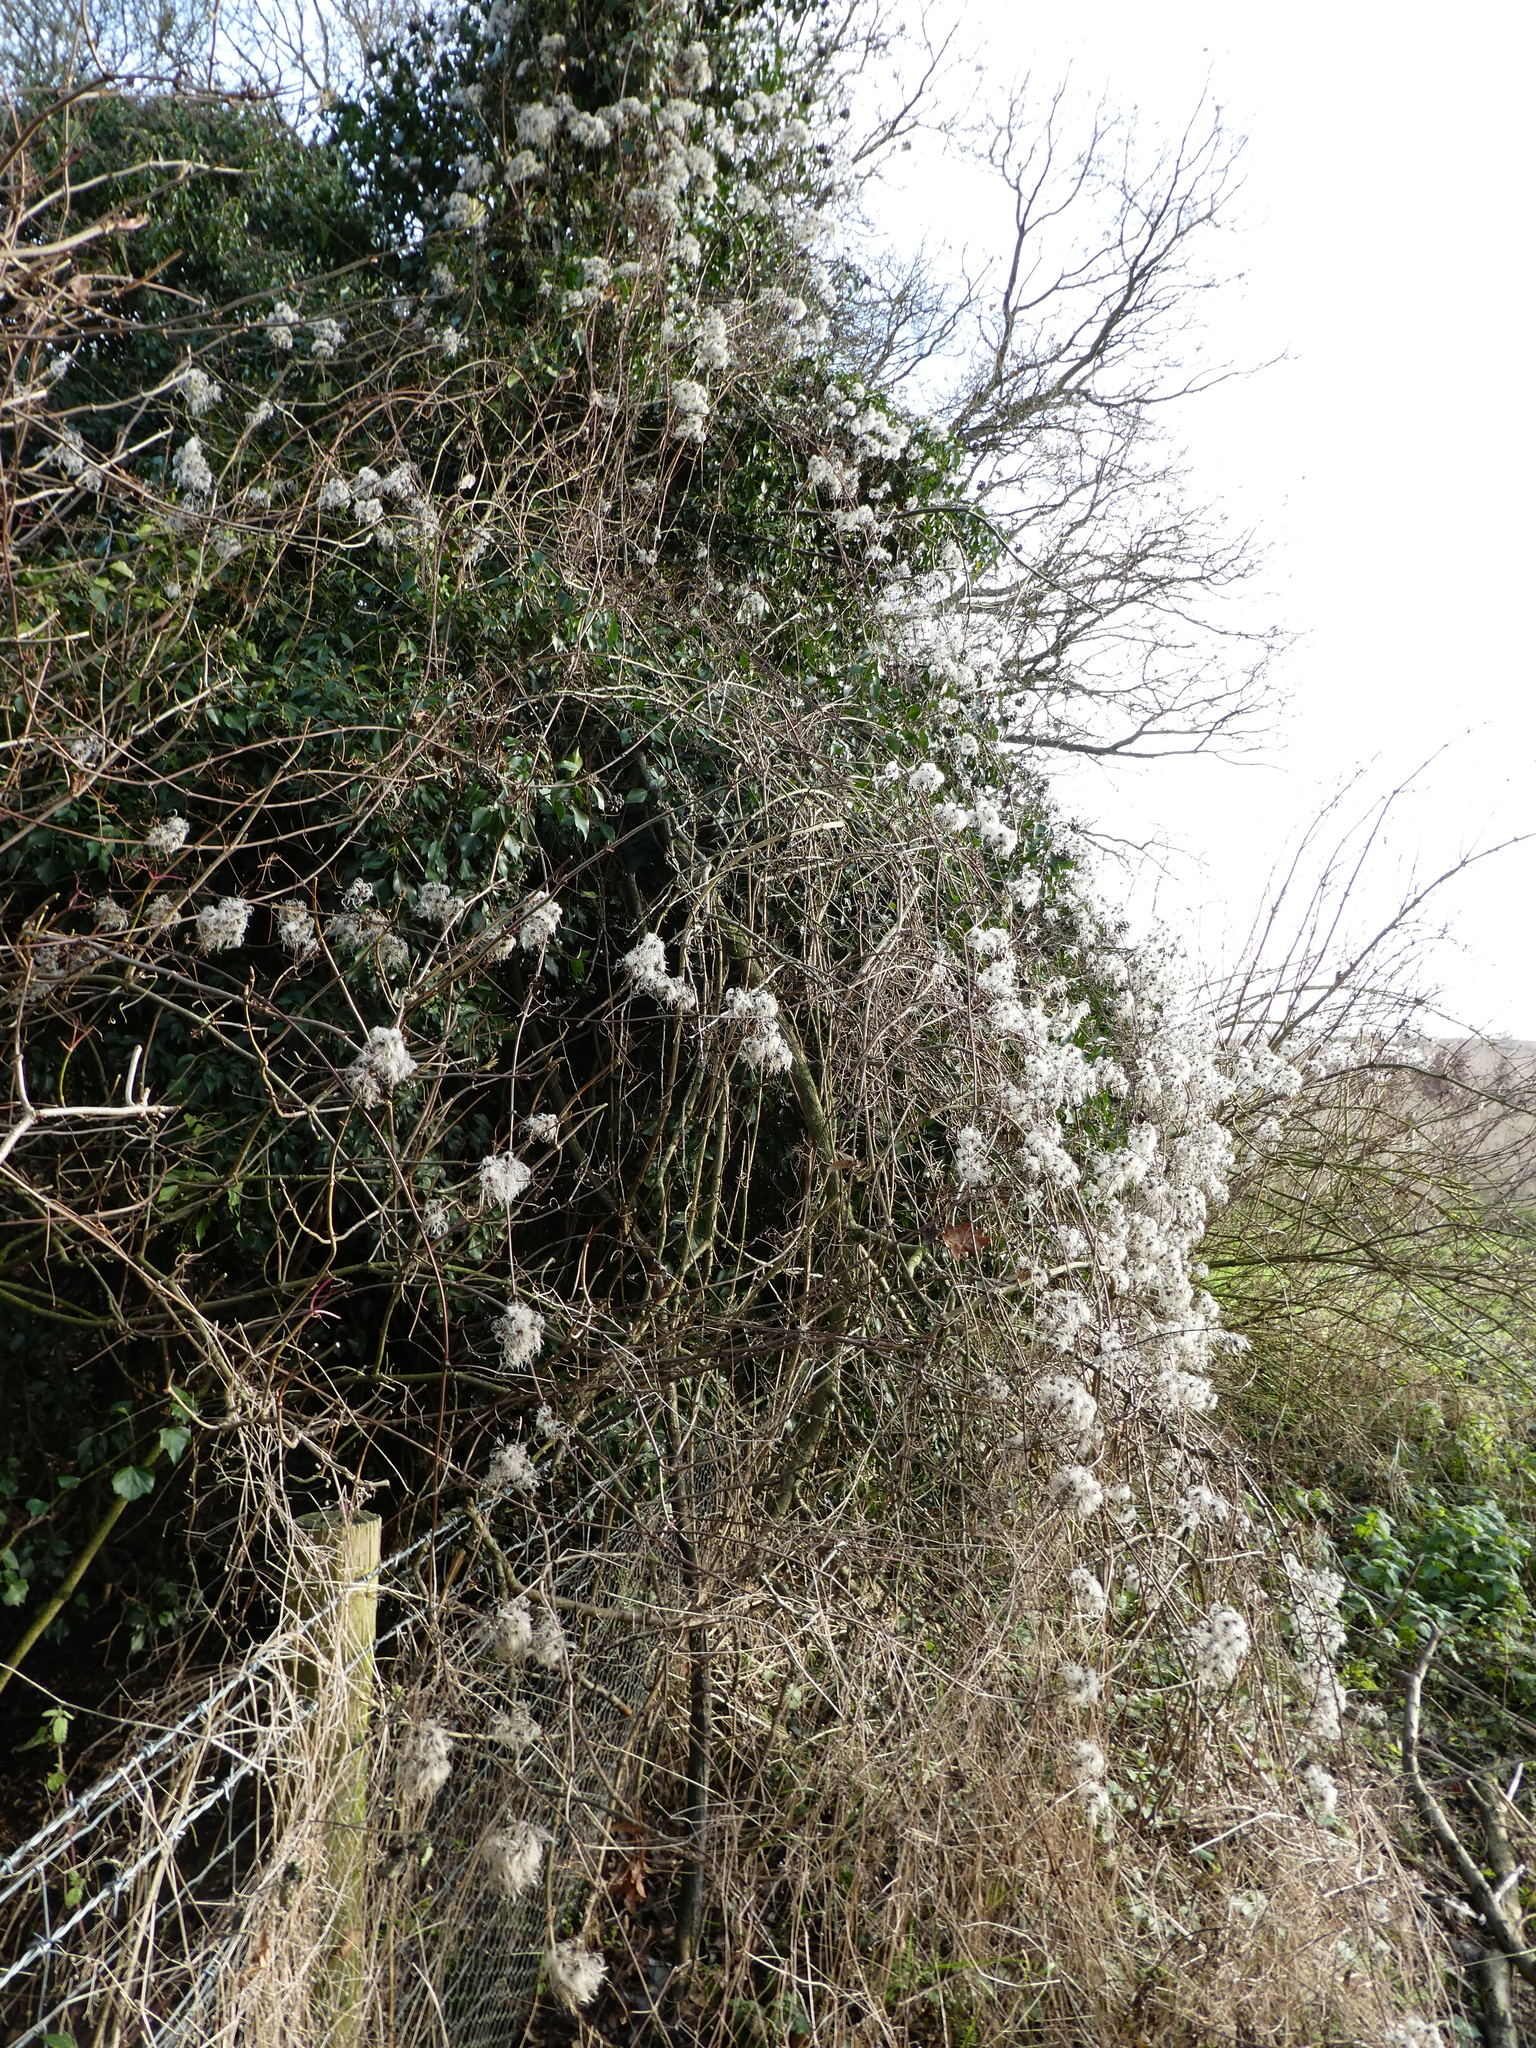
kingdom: Plantae
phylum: Tracheophyta
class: Magnoliopsida
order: Ranunculales
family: Ranunculaceae
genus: Clematis
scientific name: Clematis vitalba
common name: Evergreen clematis
